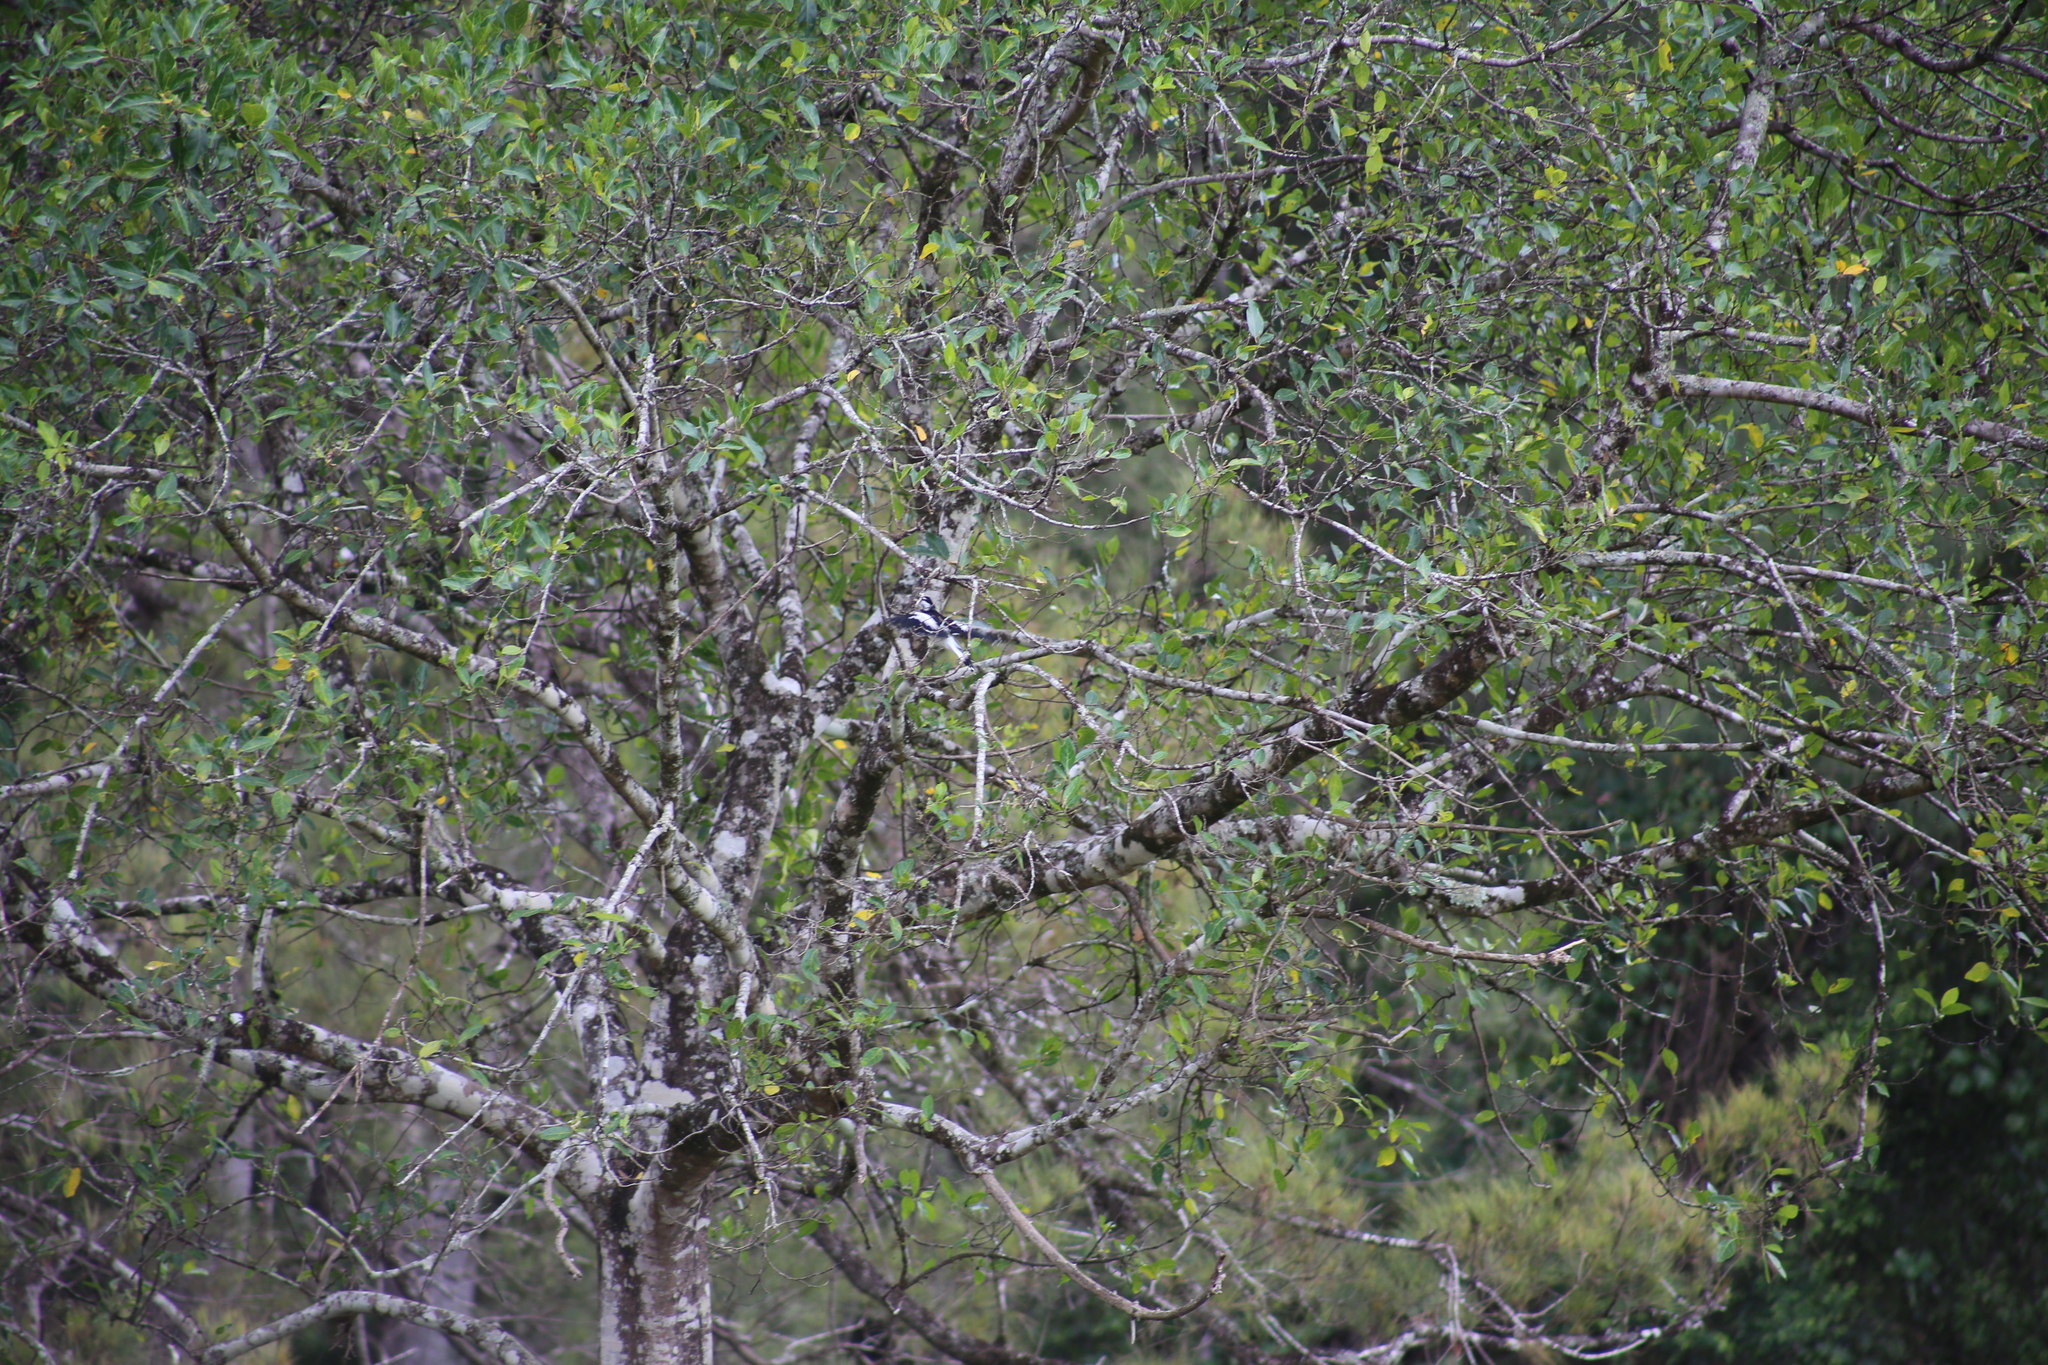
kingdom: Animalia
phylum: Chordata
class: Aves
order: Passeriformes
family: Monarchidae
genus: Grallina
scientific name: Grallina cyanoleuca
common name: Magpie-lark
